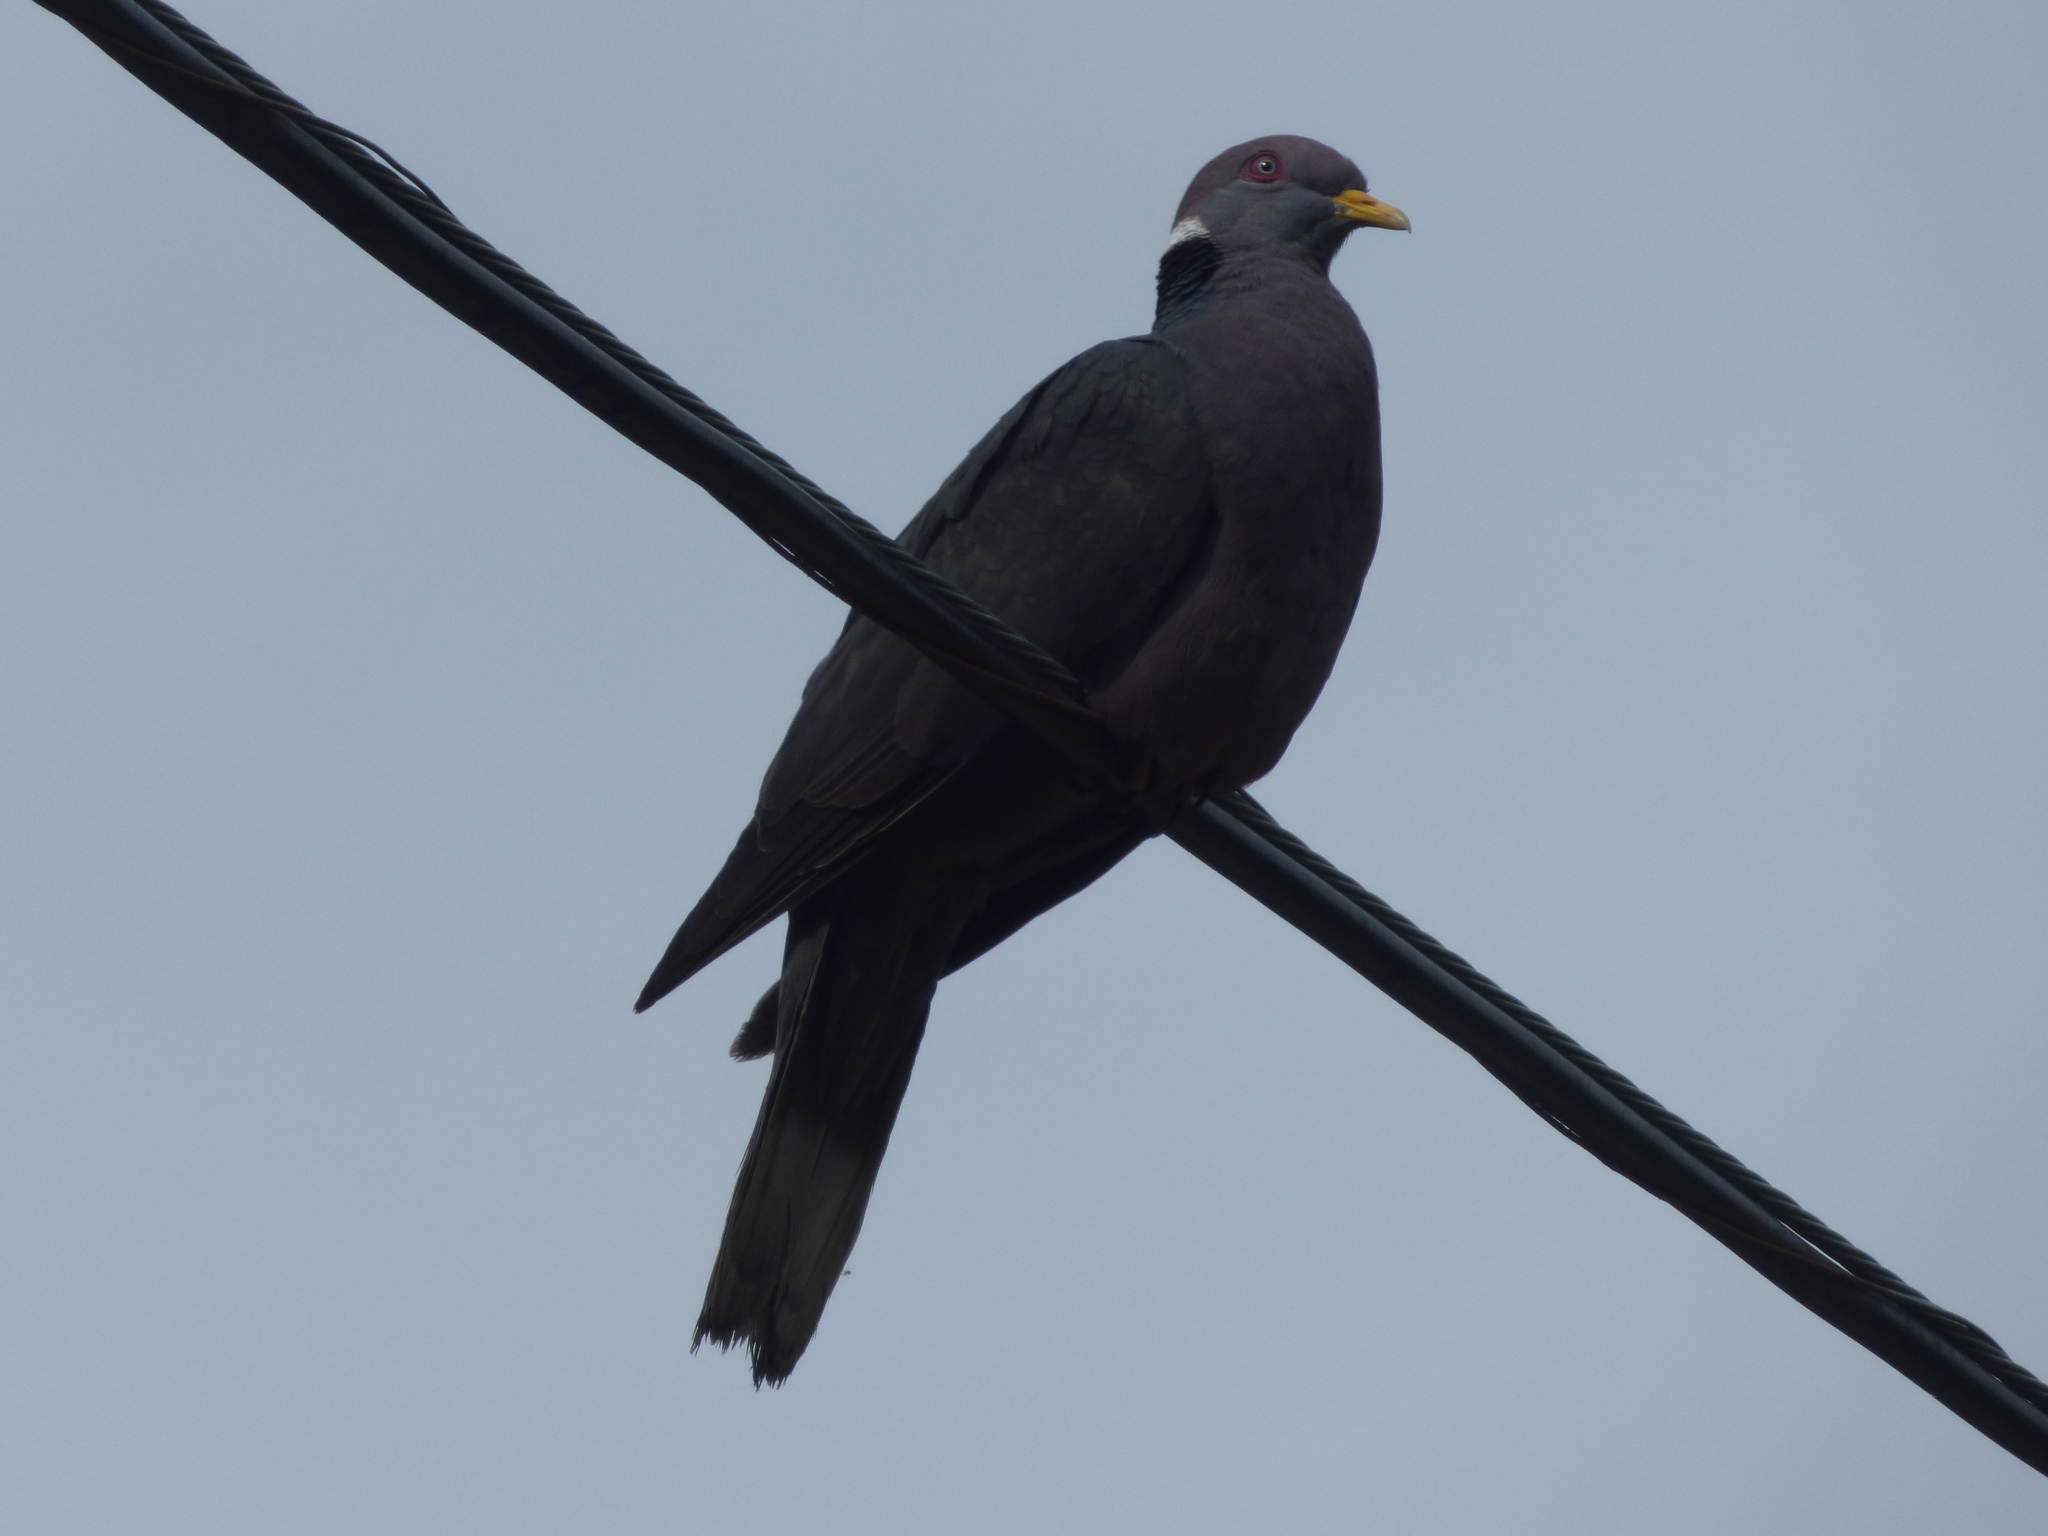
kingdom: Animalia
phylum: Chordata
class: Aves
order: Columbiformes
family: Columbidae
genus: Patagioenas
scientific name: Patagioenas fasciata
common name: Band-tailed pigeon
